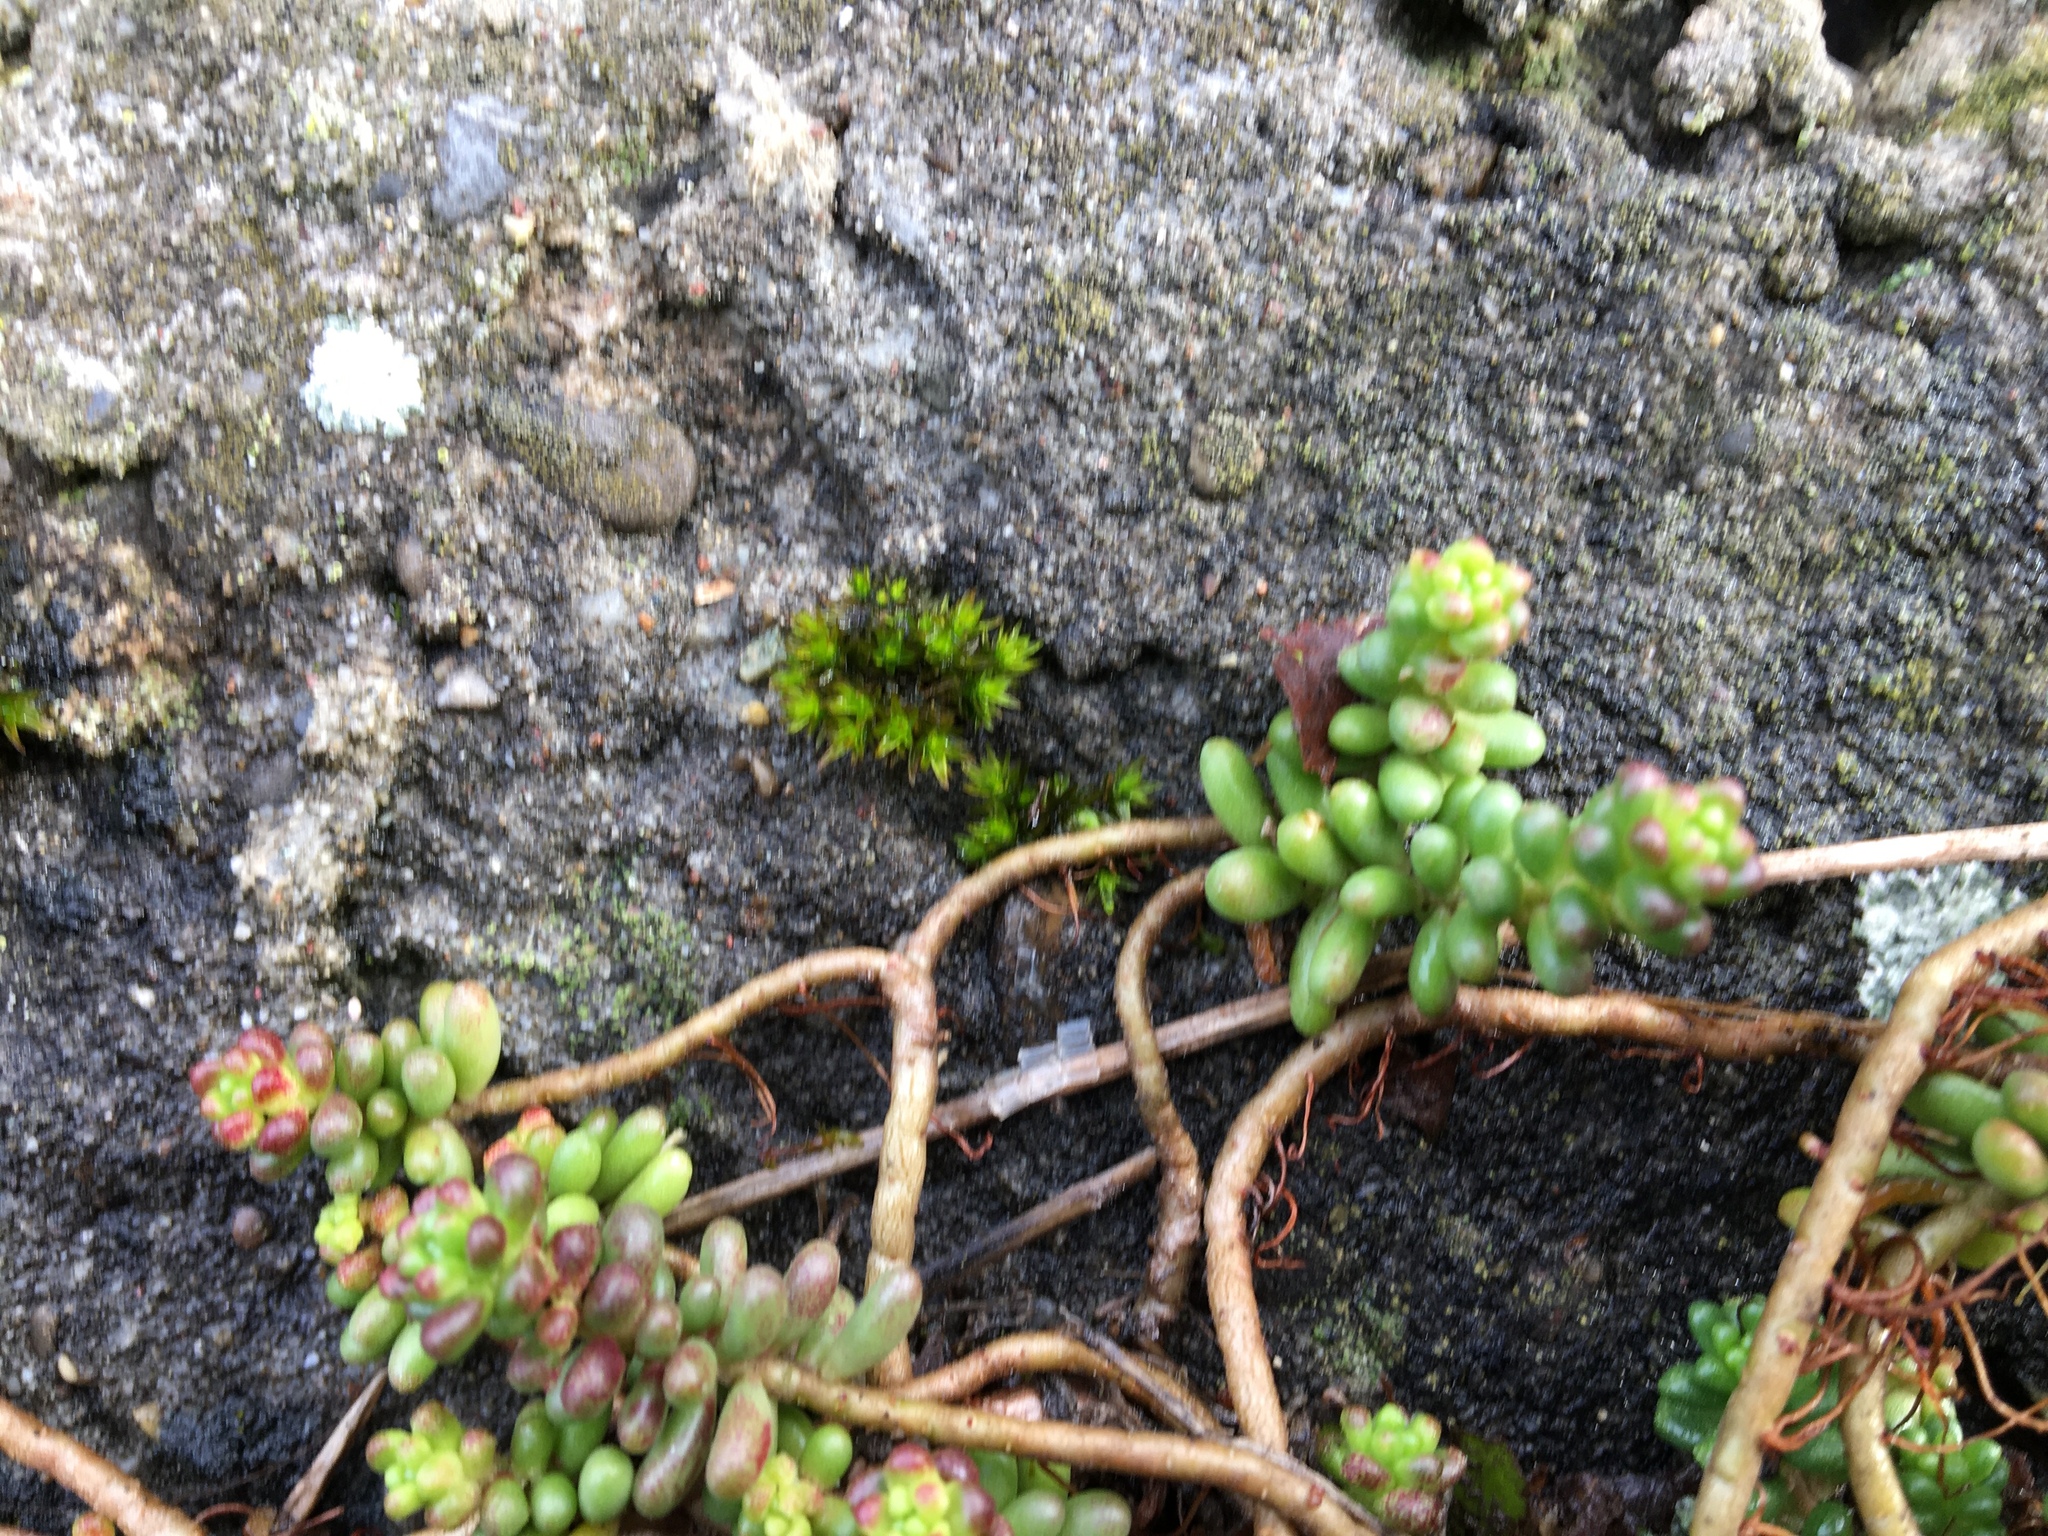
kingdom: Plantae
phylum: Tracheophyta
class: Magnoliopsida
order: Saxifragales
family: Crassulaceae
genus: Sedum
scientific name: Sedum album
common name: White stonecrop
